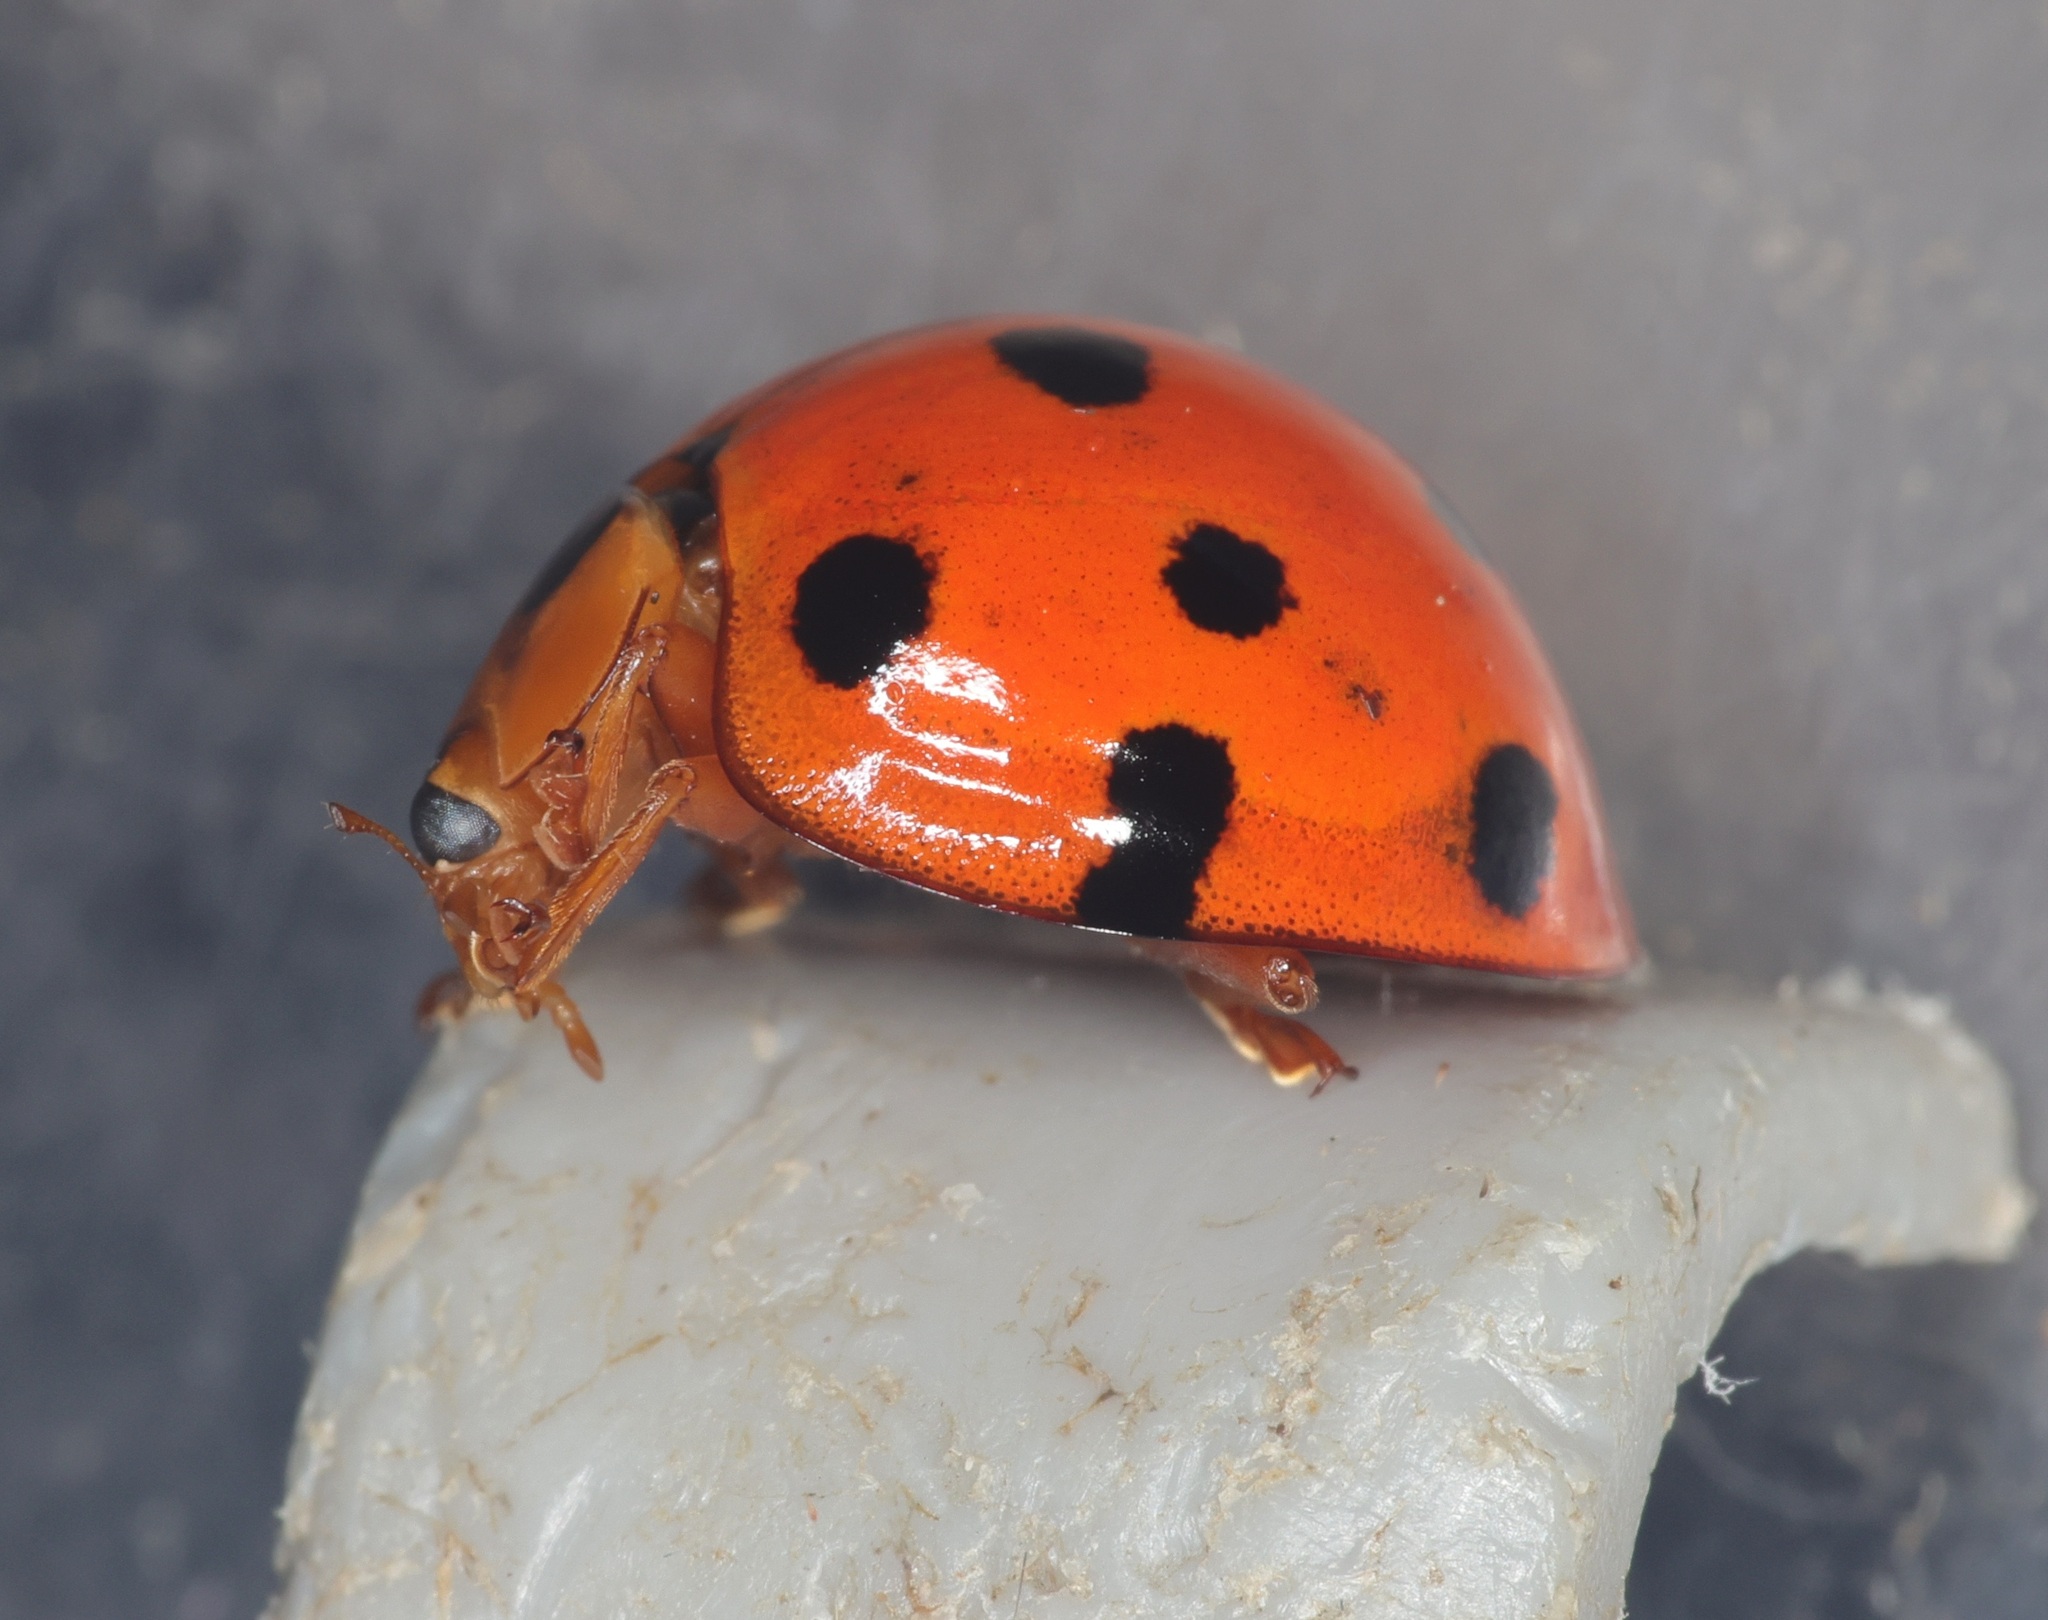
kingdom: Animalia
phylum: Arthropoda
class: Insecta
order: Coleoptera
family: Coccinellidae
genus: Harmonia
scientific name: Harmonia dimidiata
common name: Ladybird beetle
